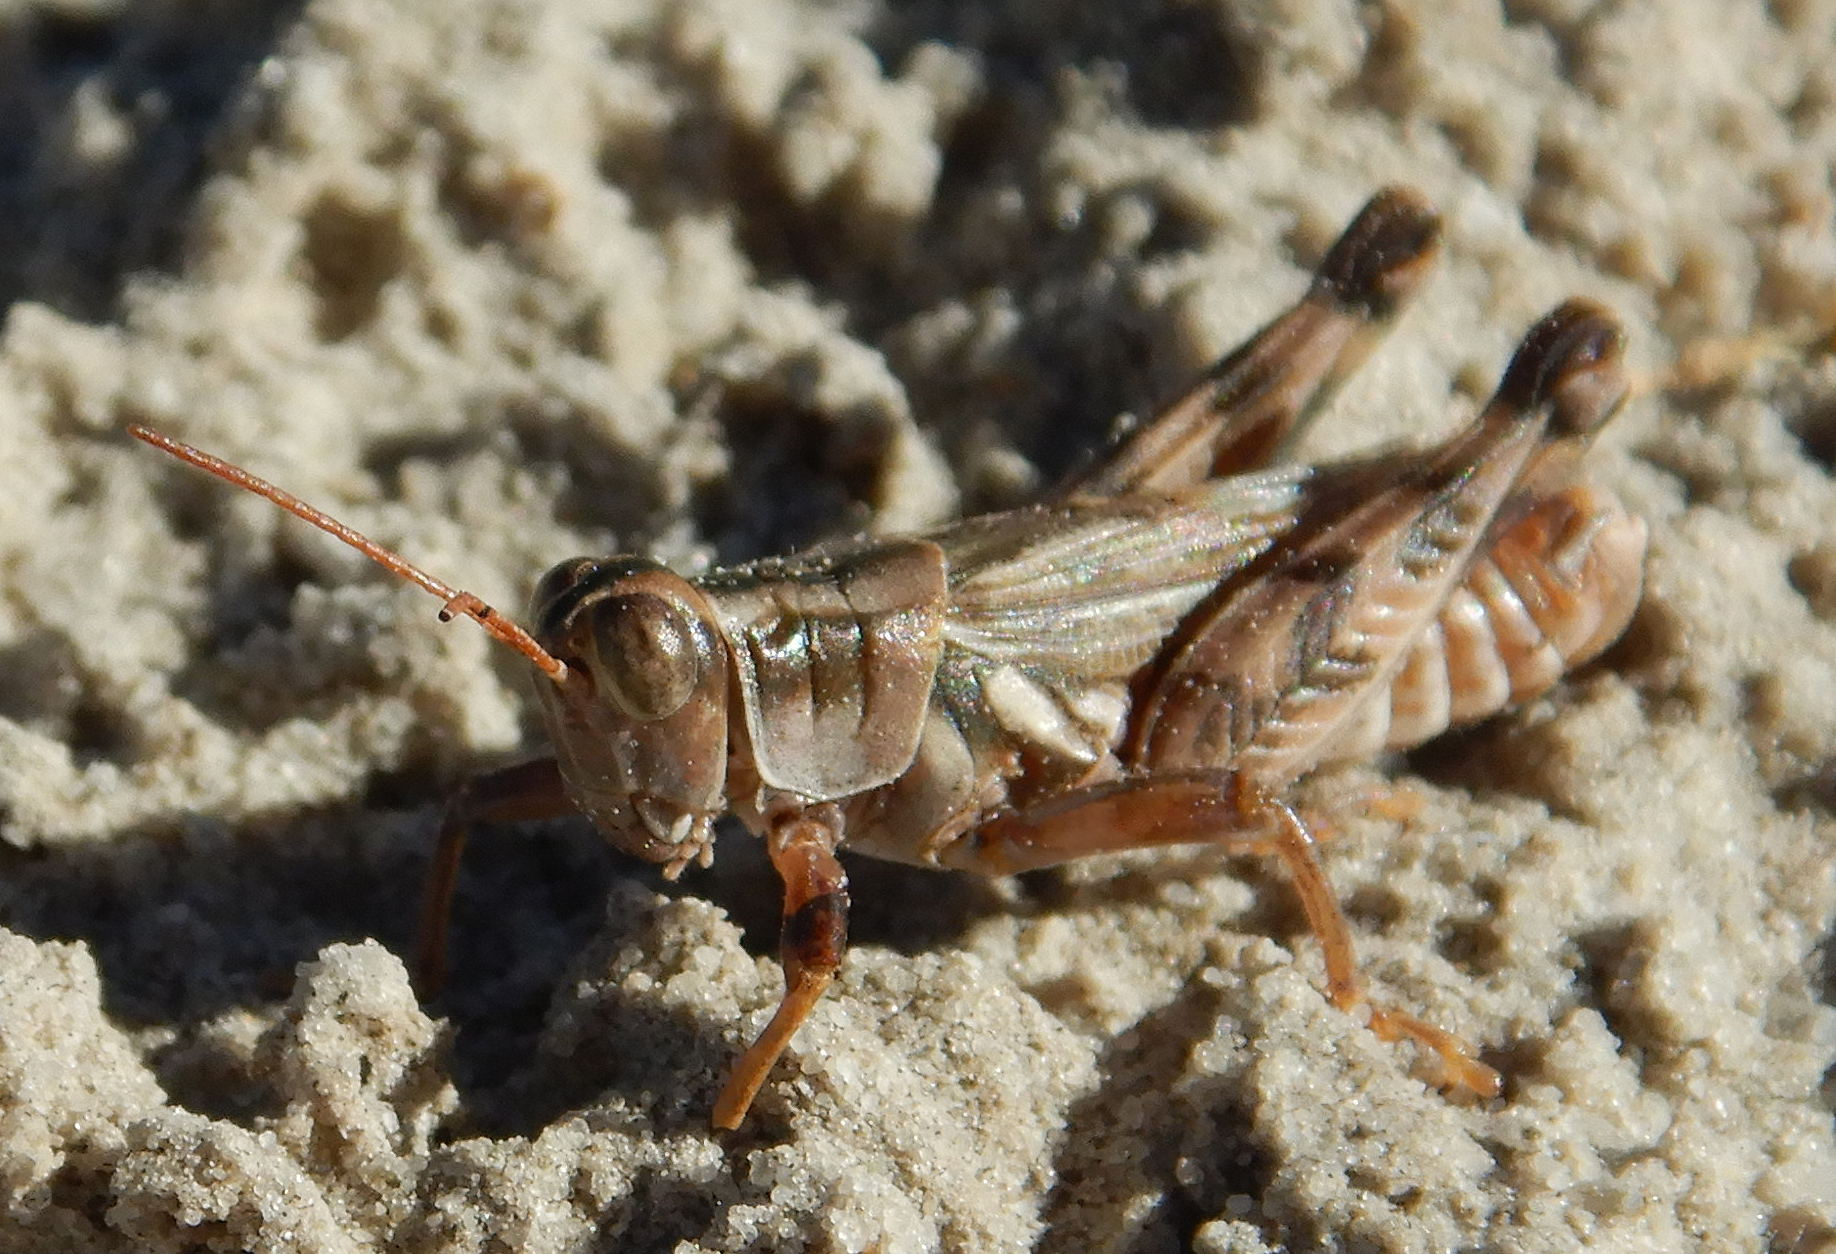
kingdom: Animalia
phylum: Arthropoda
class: Insecta
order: Orthoptera
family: Acrididae
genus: Aeoloplides
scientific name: Aeoloplides turnbulli
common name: Russianthistle grasshopper
